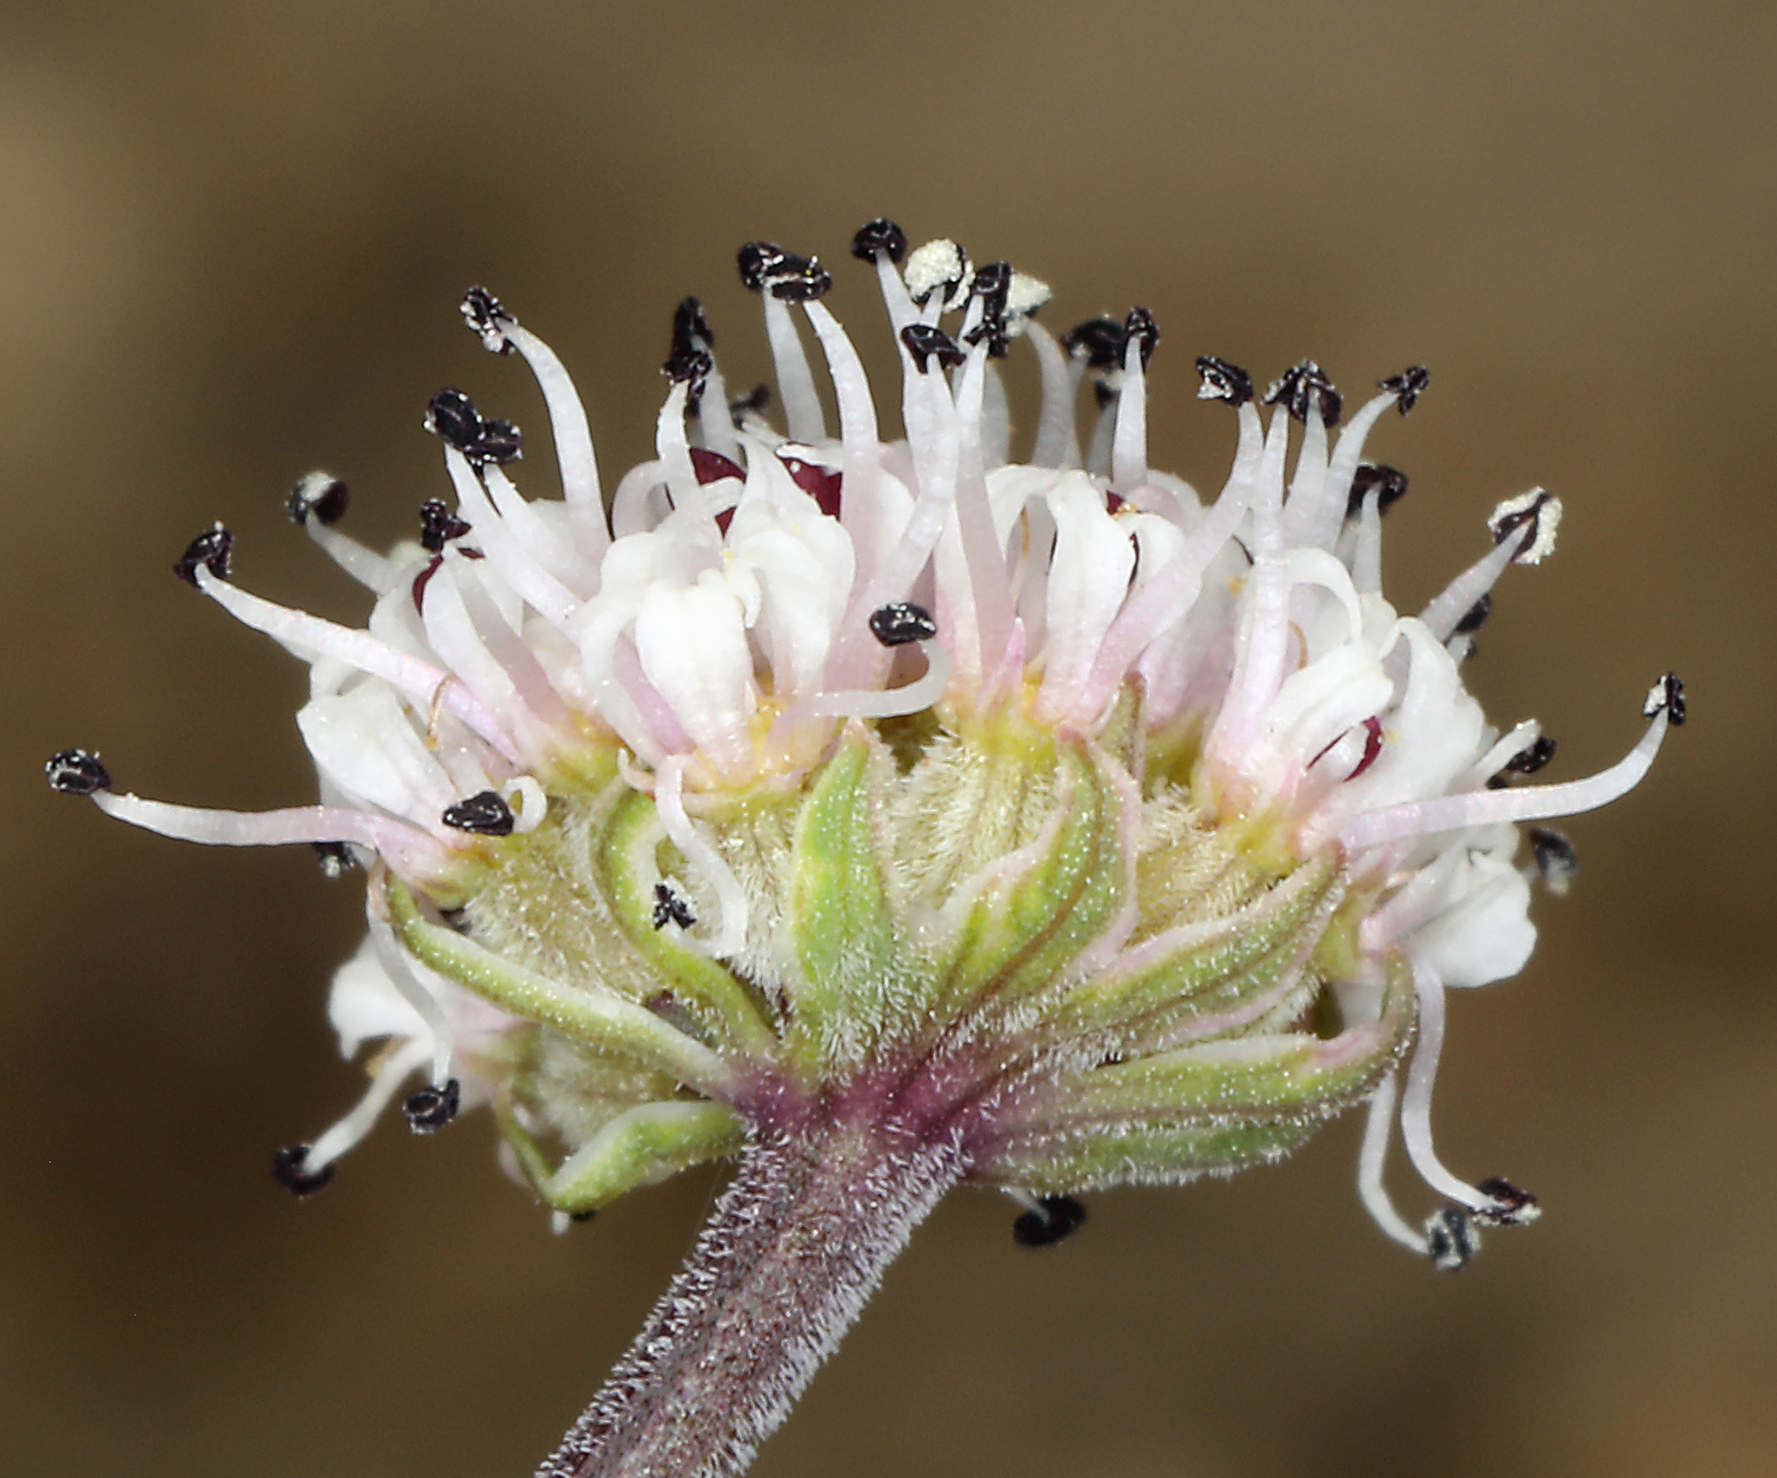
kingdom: Plantae
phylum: Tracheophyta
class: Magnoliopsida
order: Apiales
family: Apiaceae
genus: Lomatium
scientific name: Lomatium nevadense
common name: Nevada lomatium
